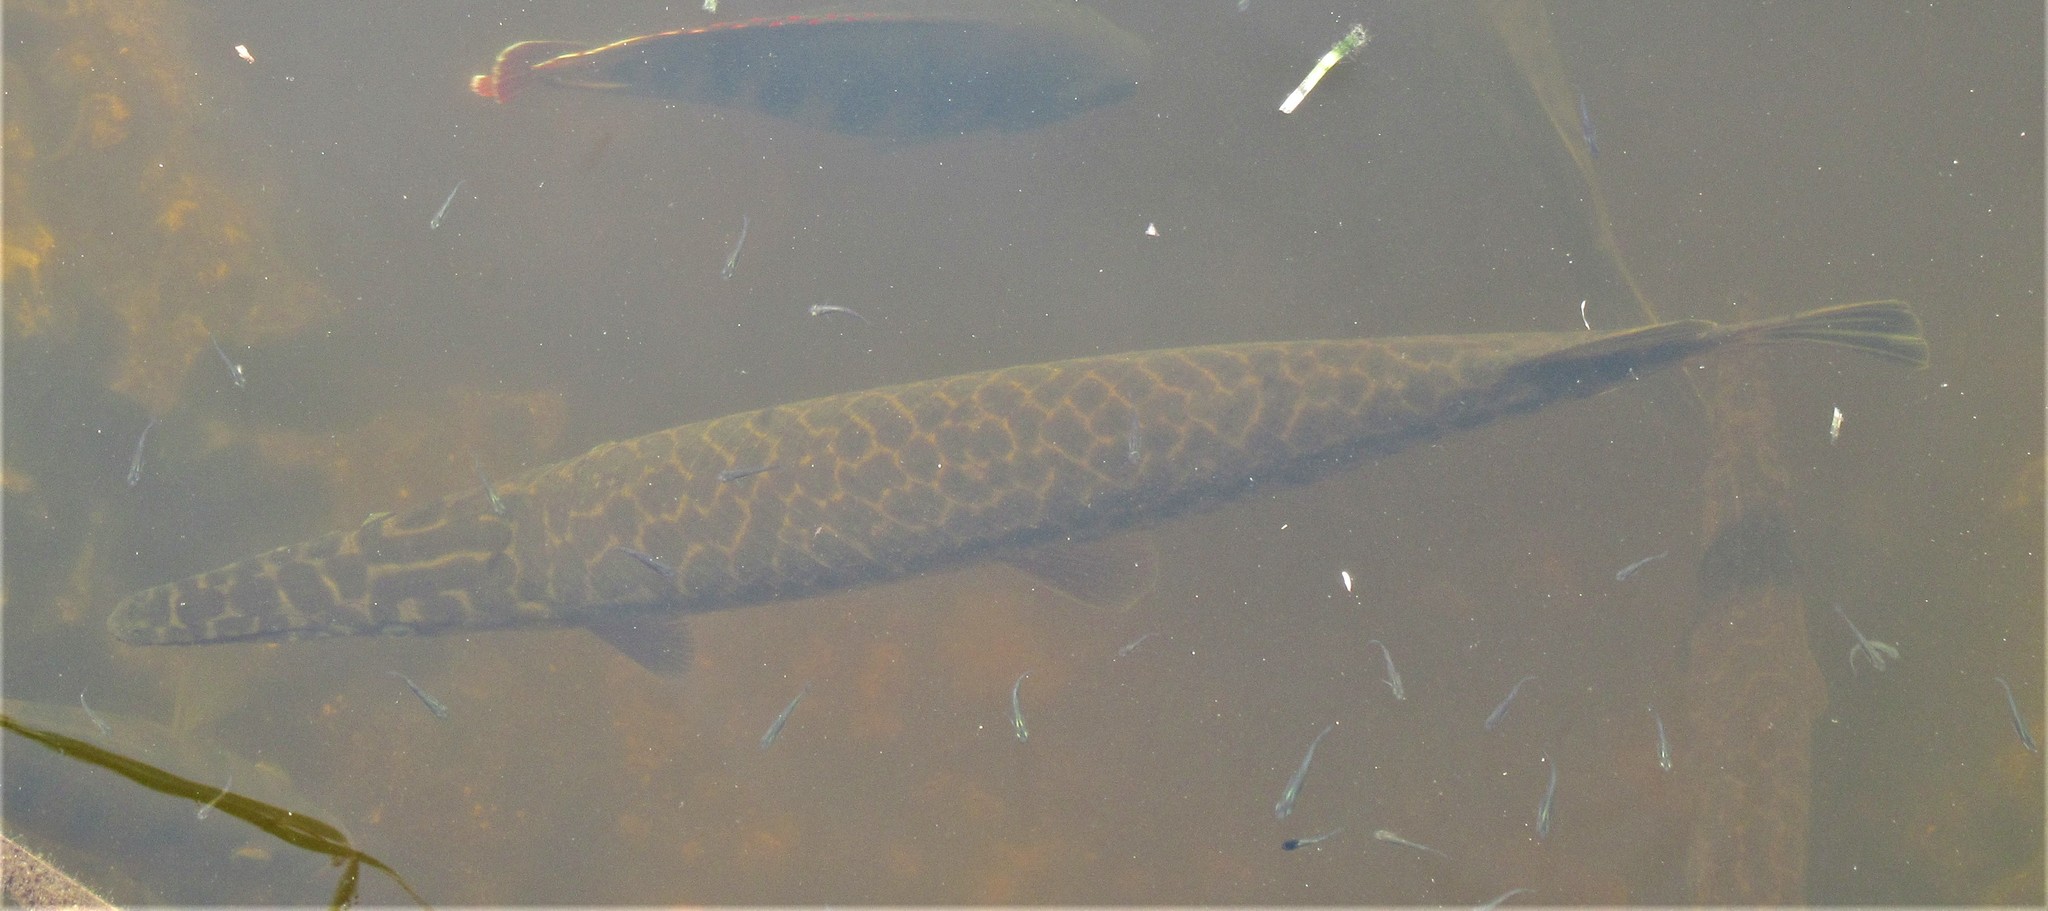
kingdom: Animalia
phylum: Chordata
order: Lepisosteiformes
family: Lepisosteidae
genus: Lepisosteus
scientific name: Lepisosteus platyrhincus
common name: Florida gar
